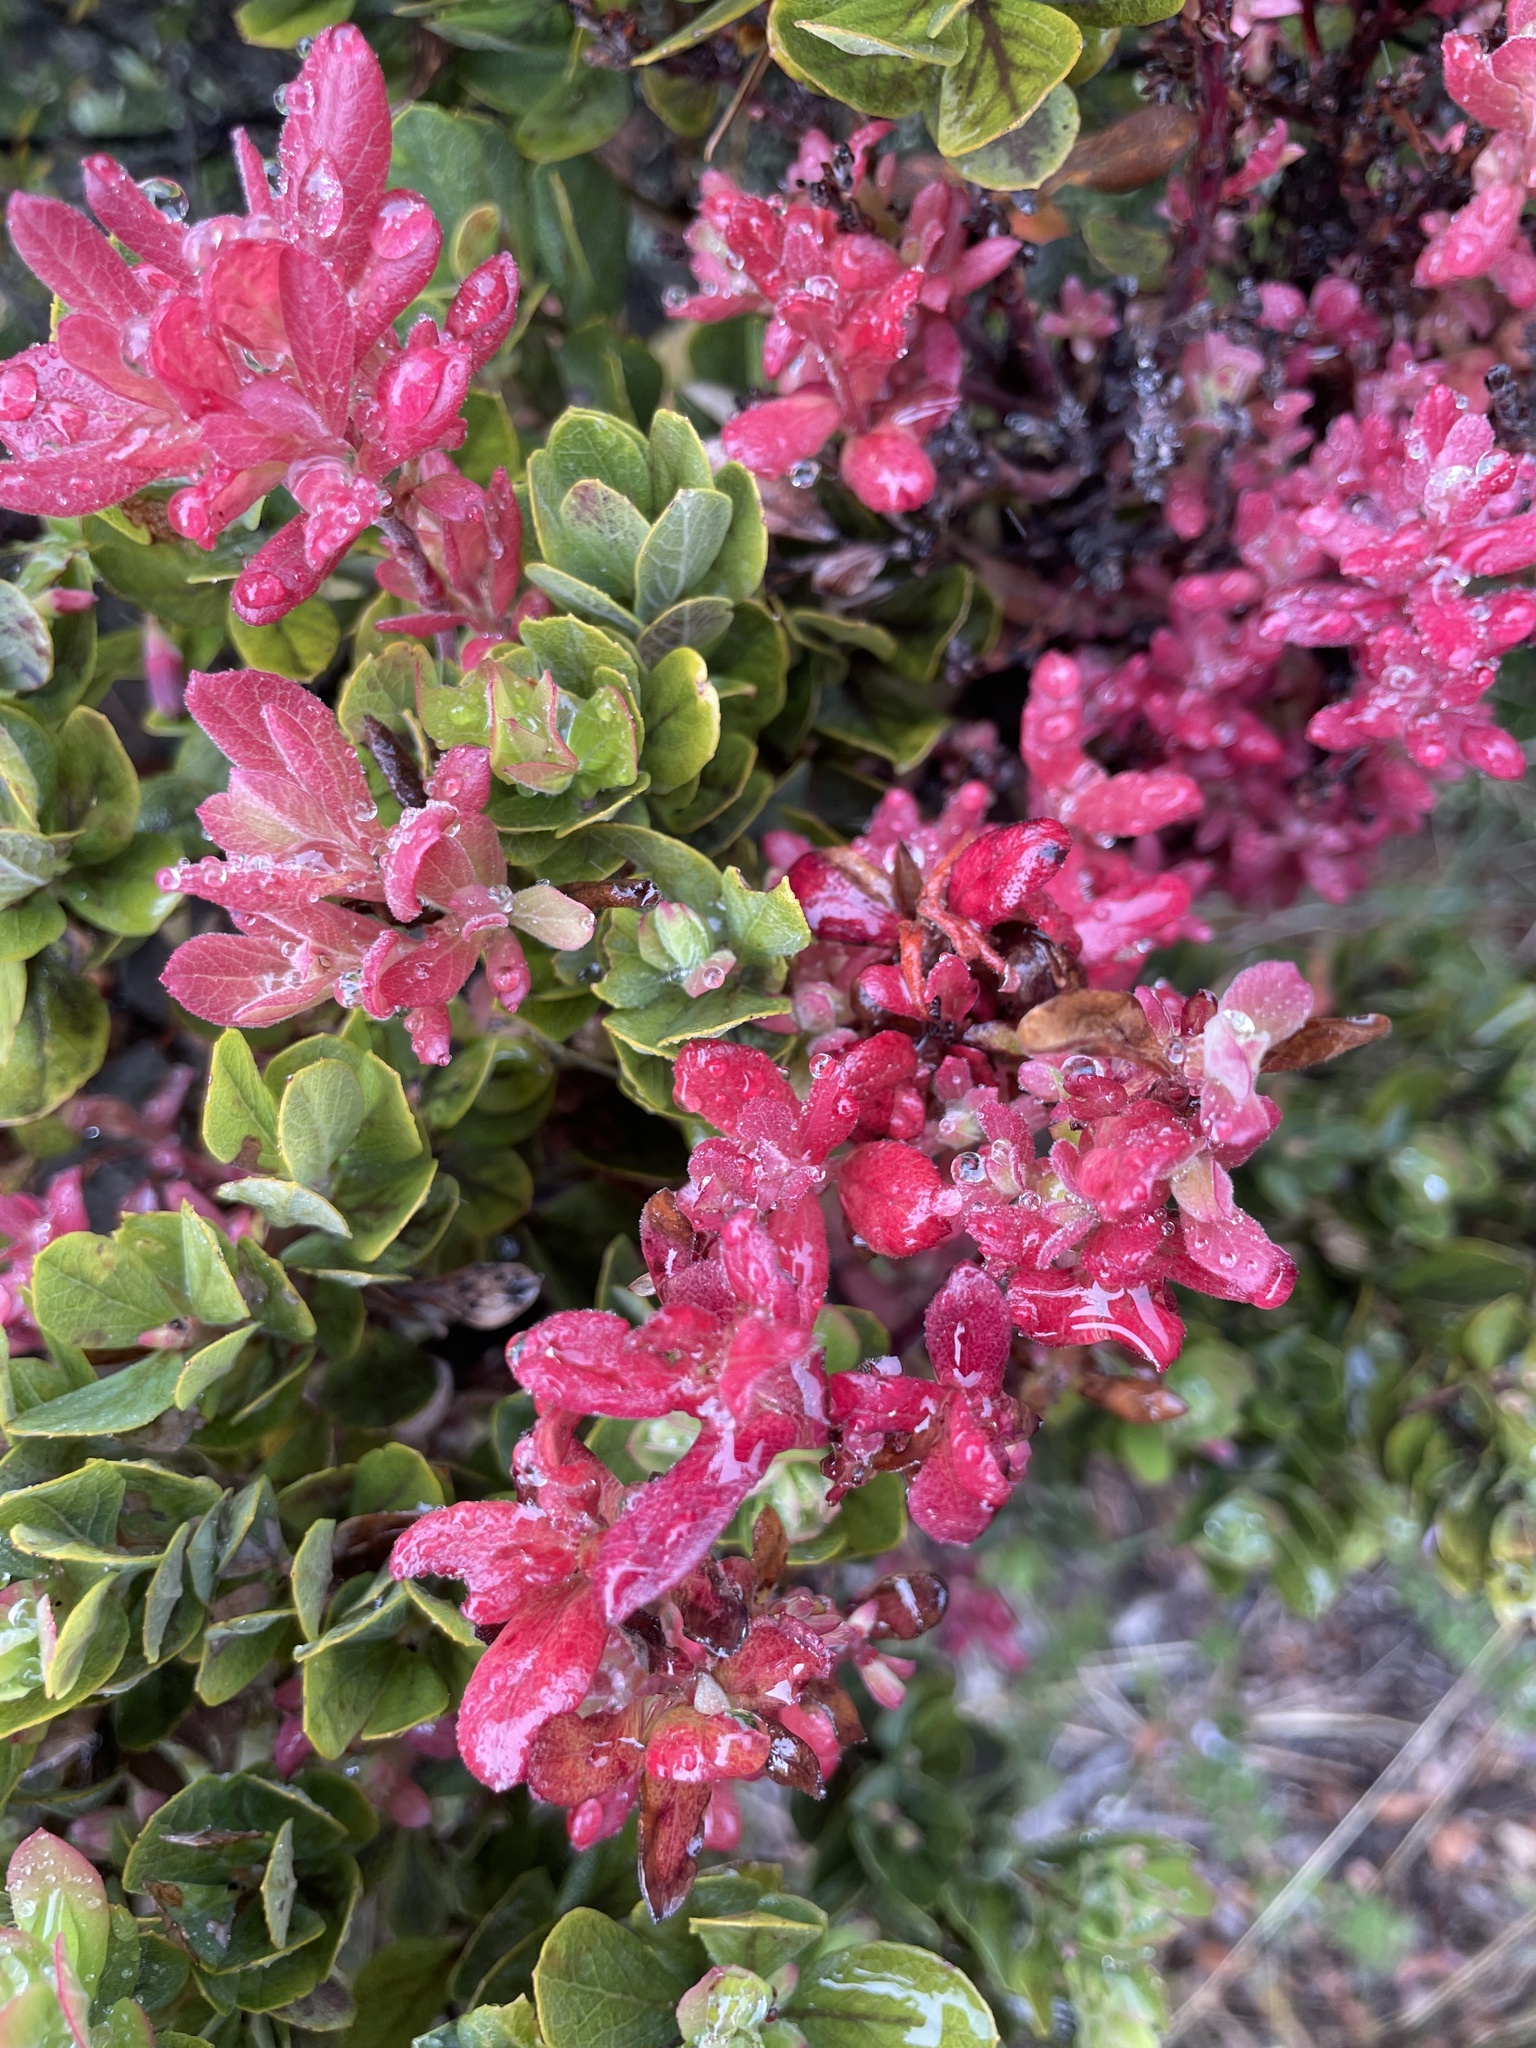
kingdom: Fungi
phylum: Basidiomycota
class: Exobasidiomycetes
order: Exobasidiales
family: Exobasidiaceae
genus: Exobasidium
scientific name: Exobasidium darwinii
